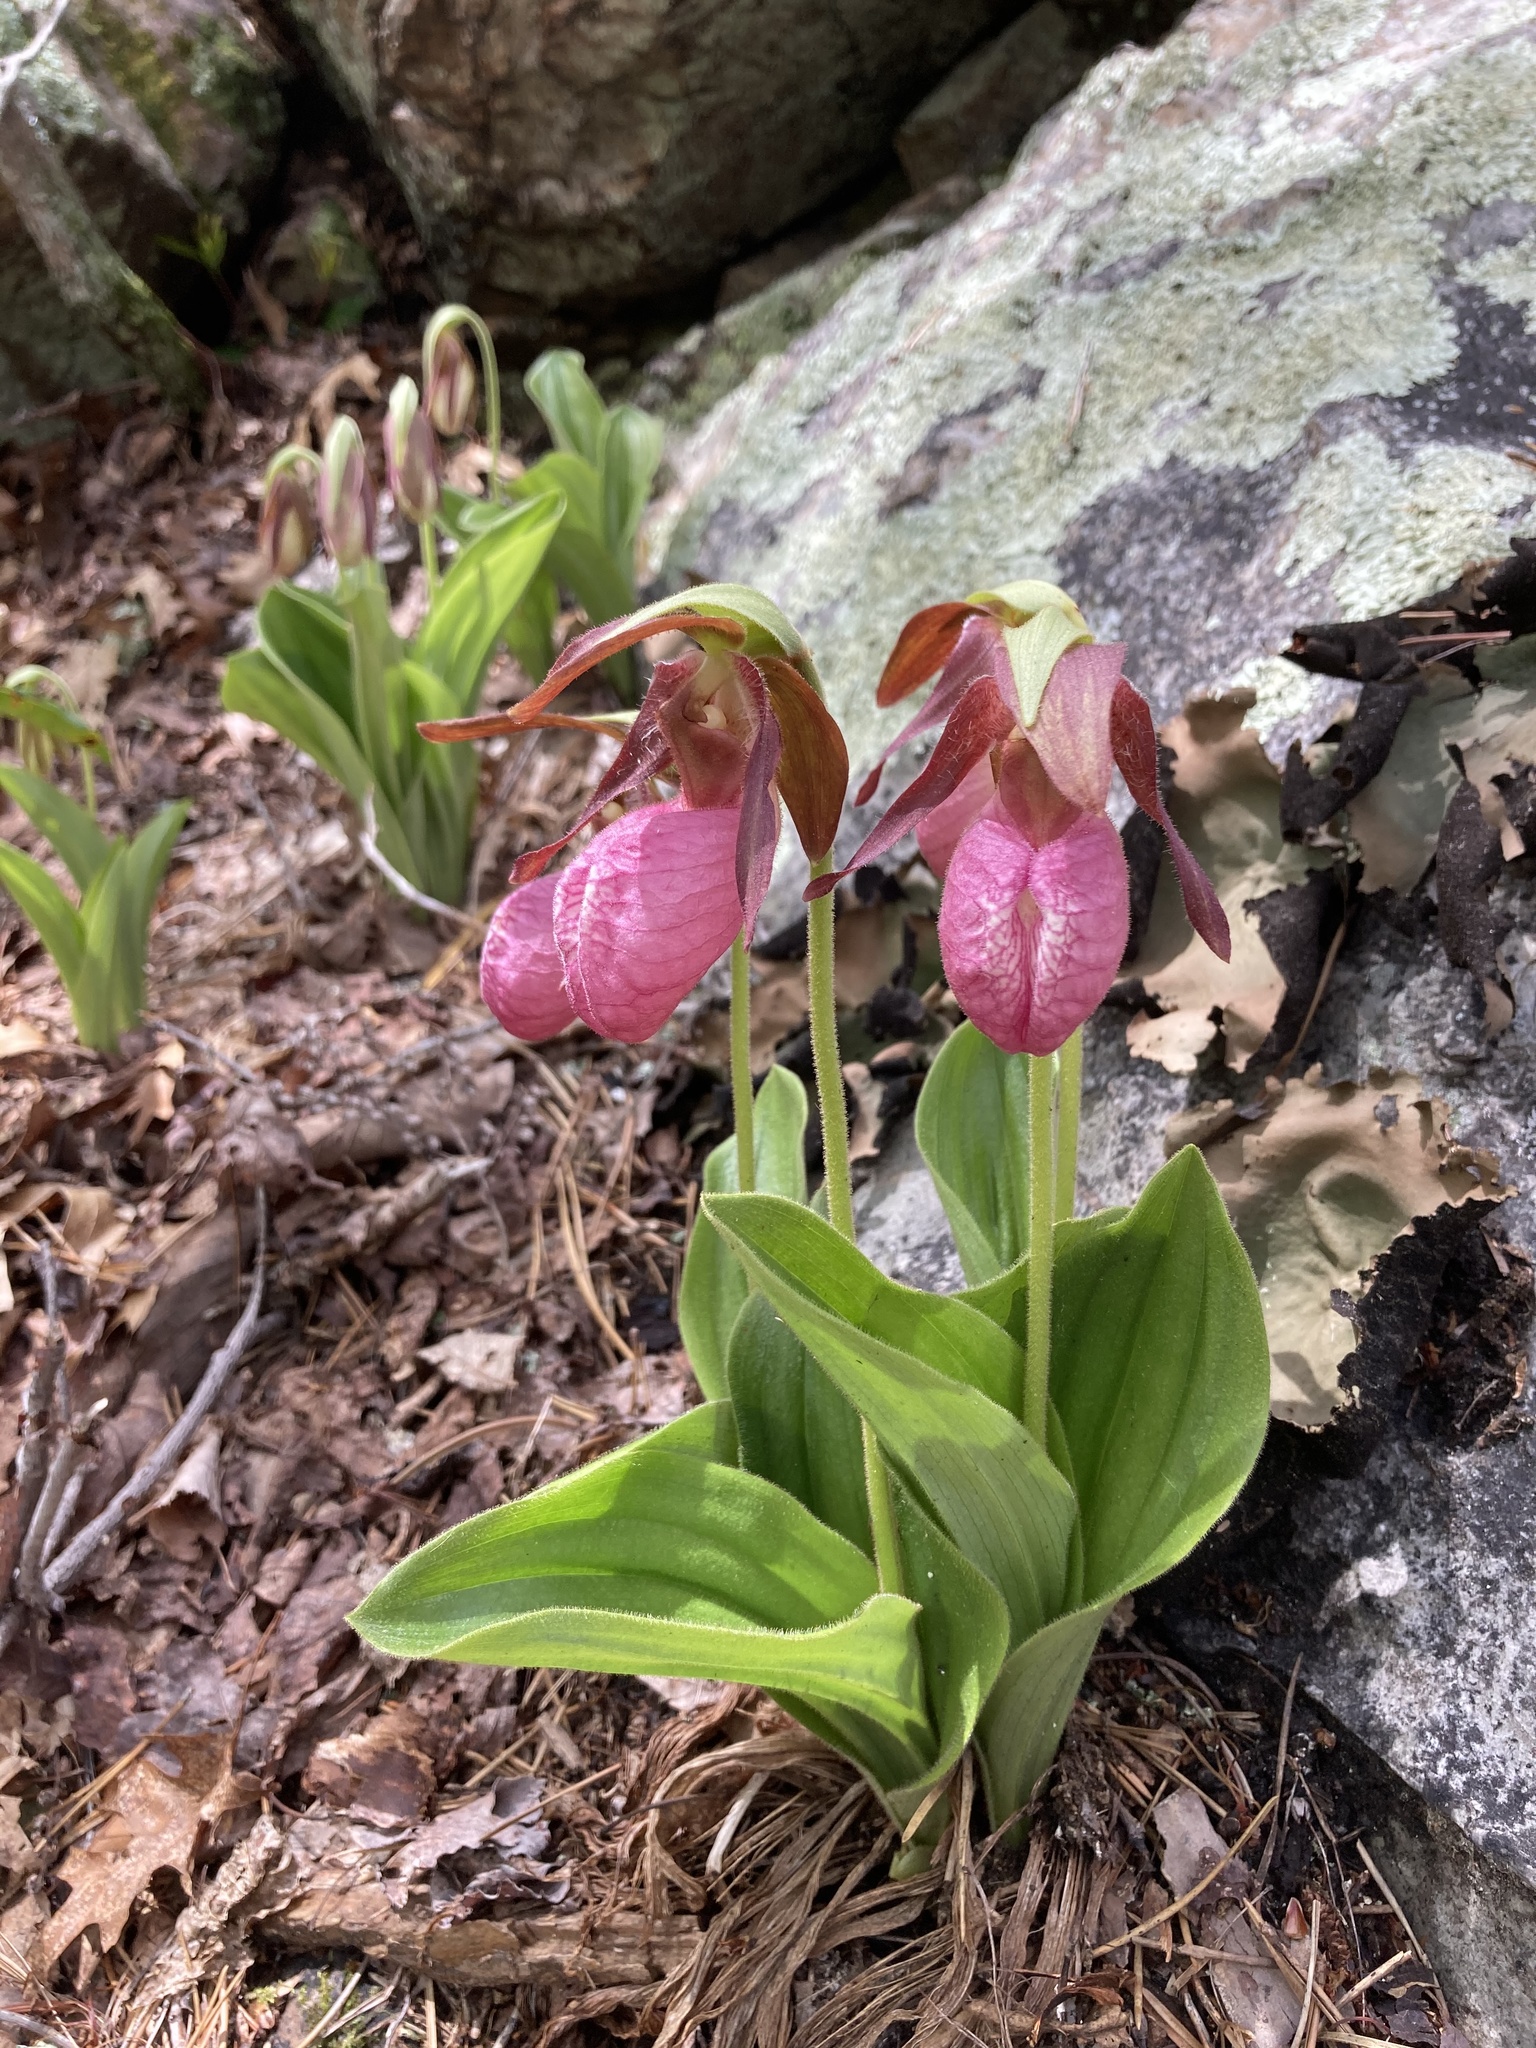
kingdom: Plantae
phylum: Tracheophyta
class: Liliopsida
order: Asparagales
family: Orchidaceae
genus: Cypripedium
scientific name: Cypripedium acaule
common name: Pink lady's-slipper
